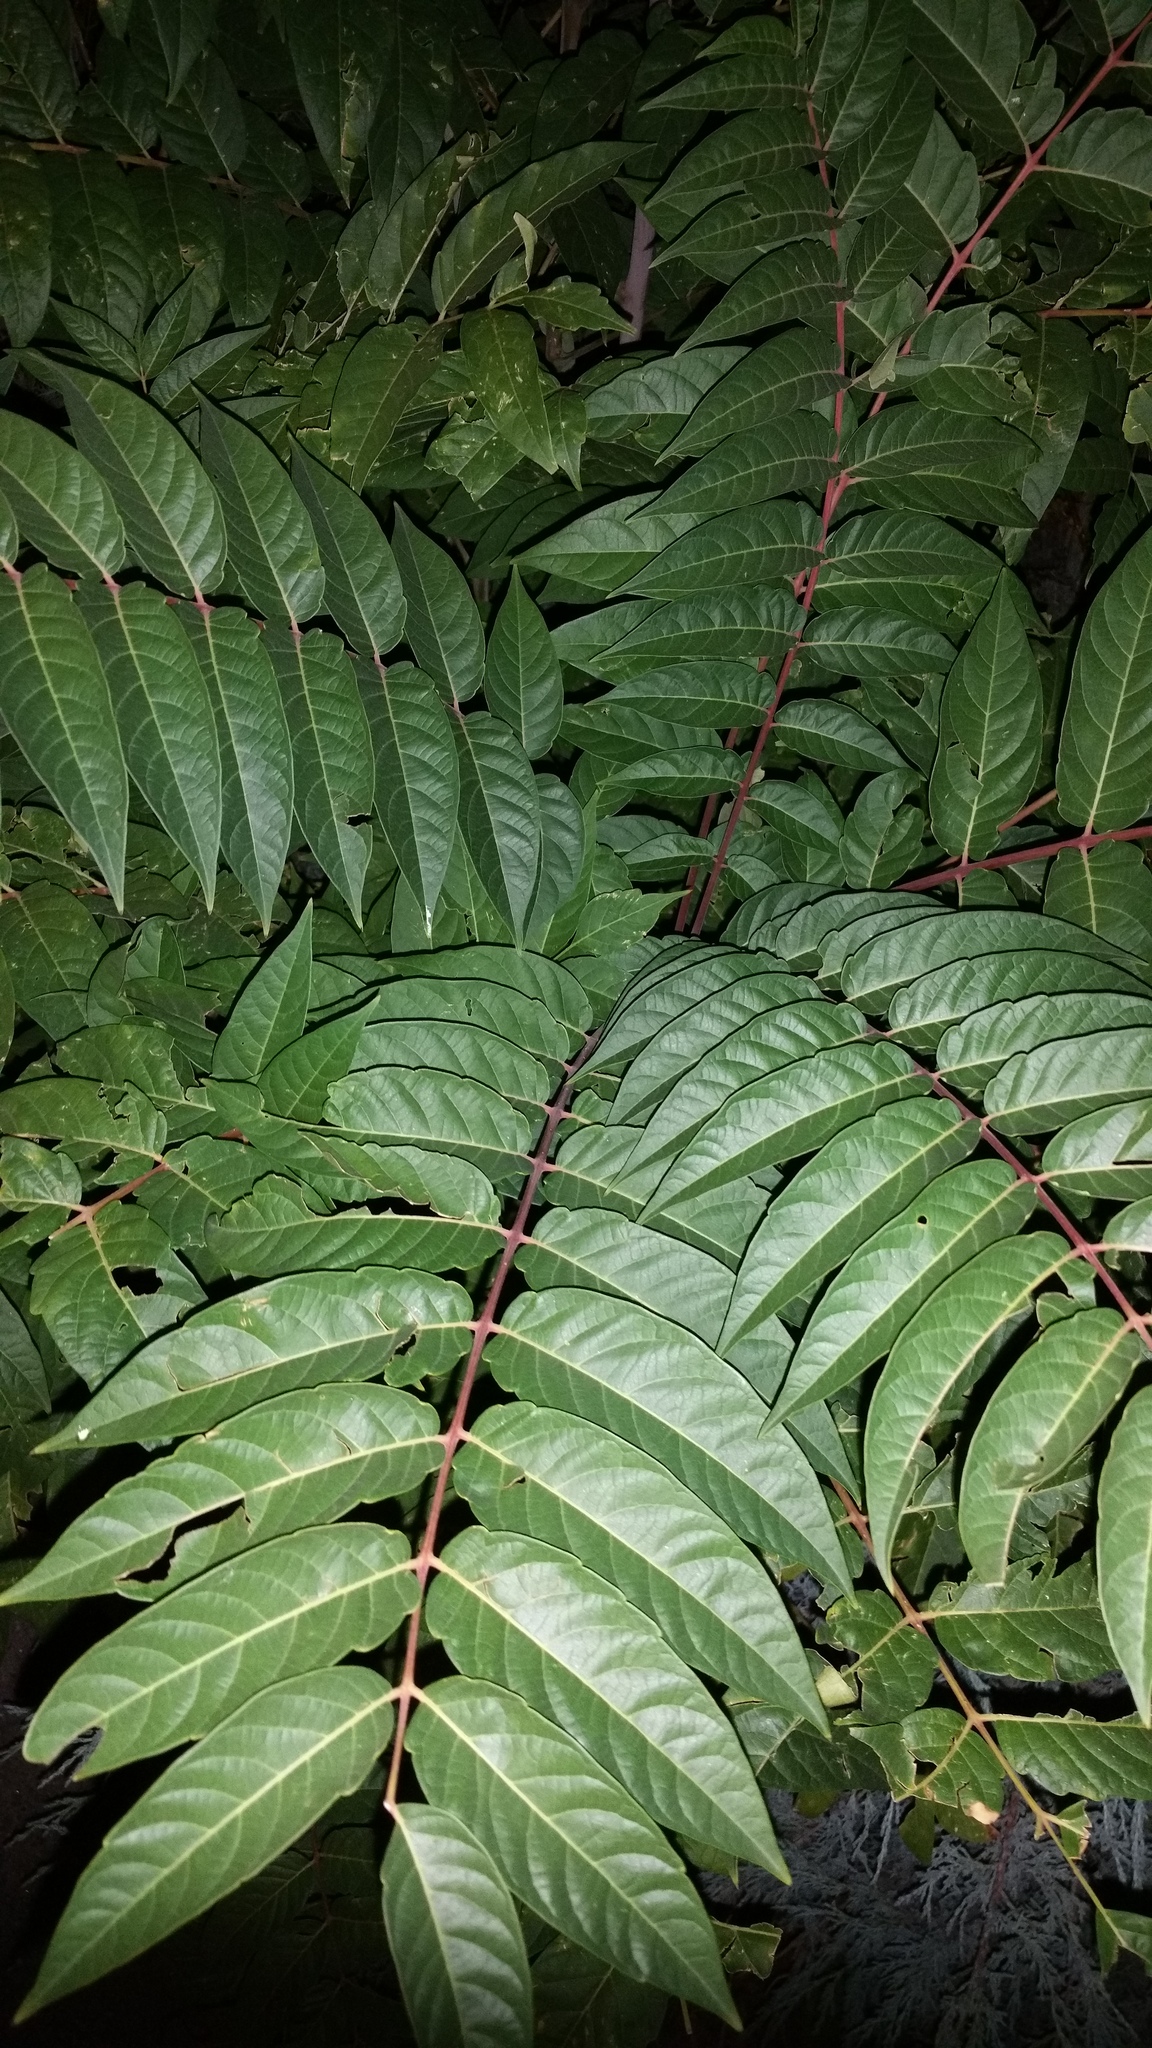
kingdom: Plantae
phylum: Tracheophyta
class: Magnoliopsida
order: Sapindales
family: Simaroubaceae
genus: Ailanthus
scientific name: Ailanthus altissima
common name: Tree-of-heaven
